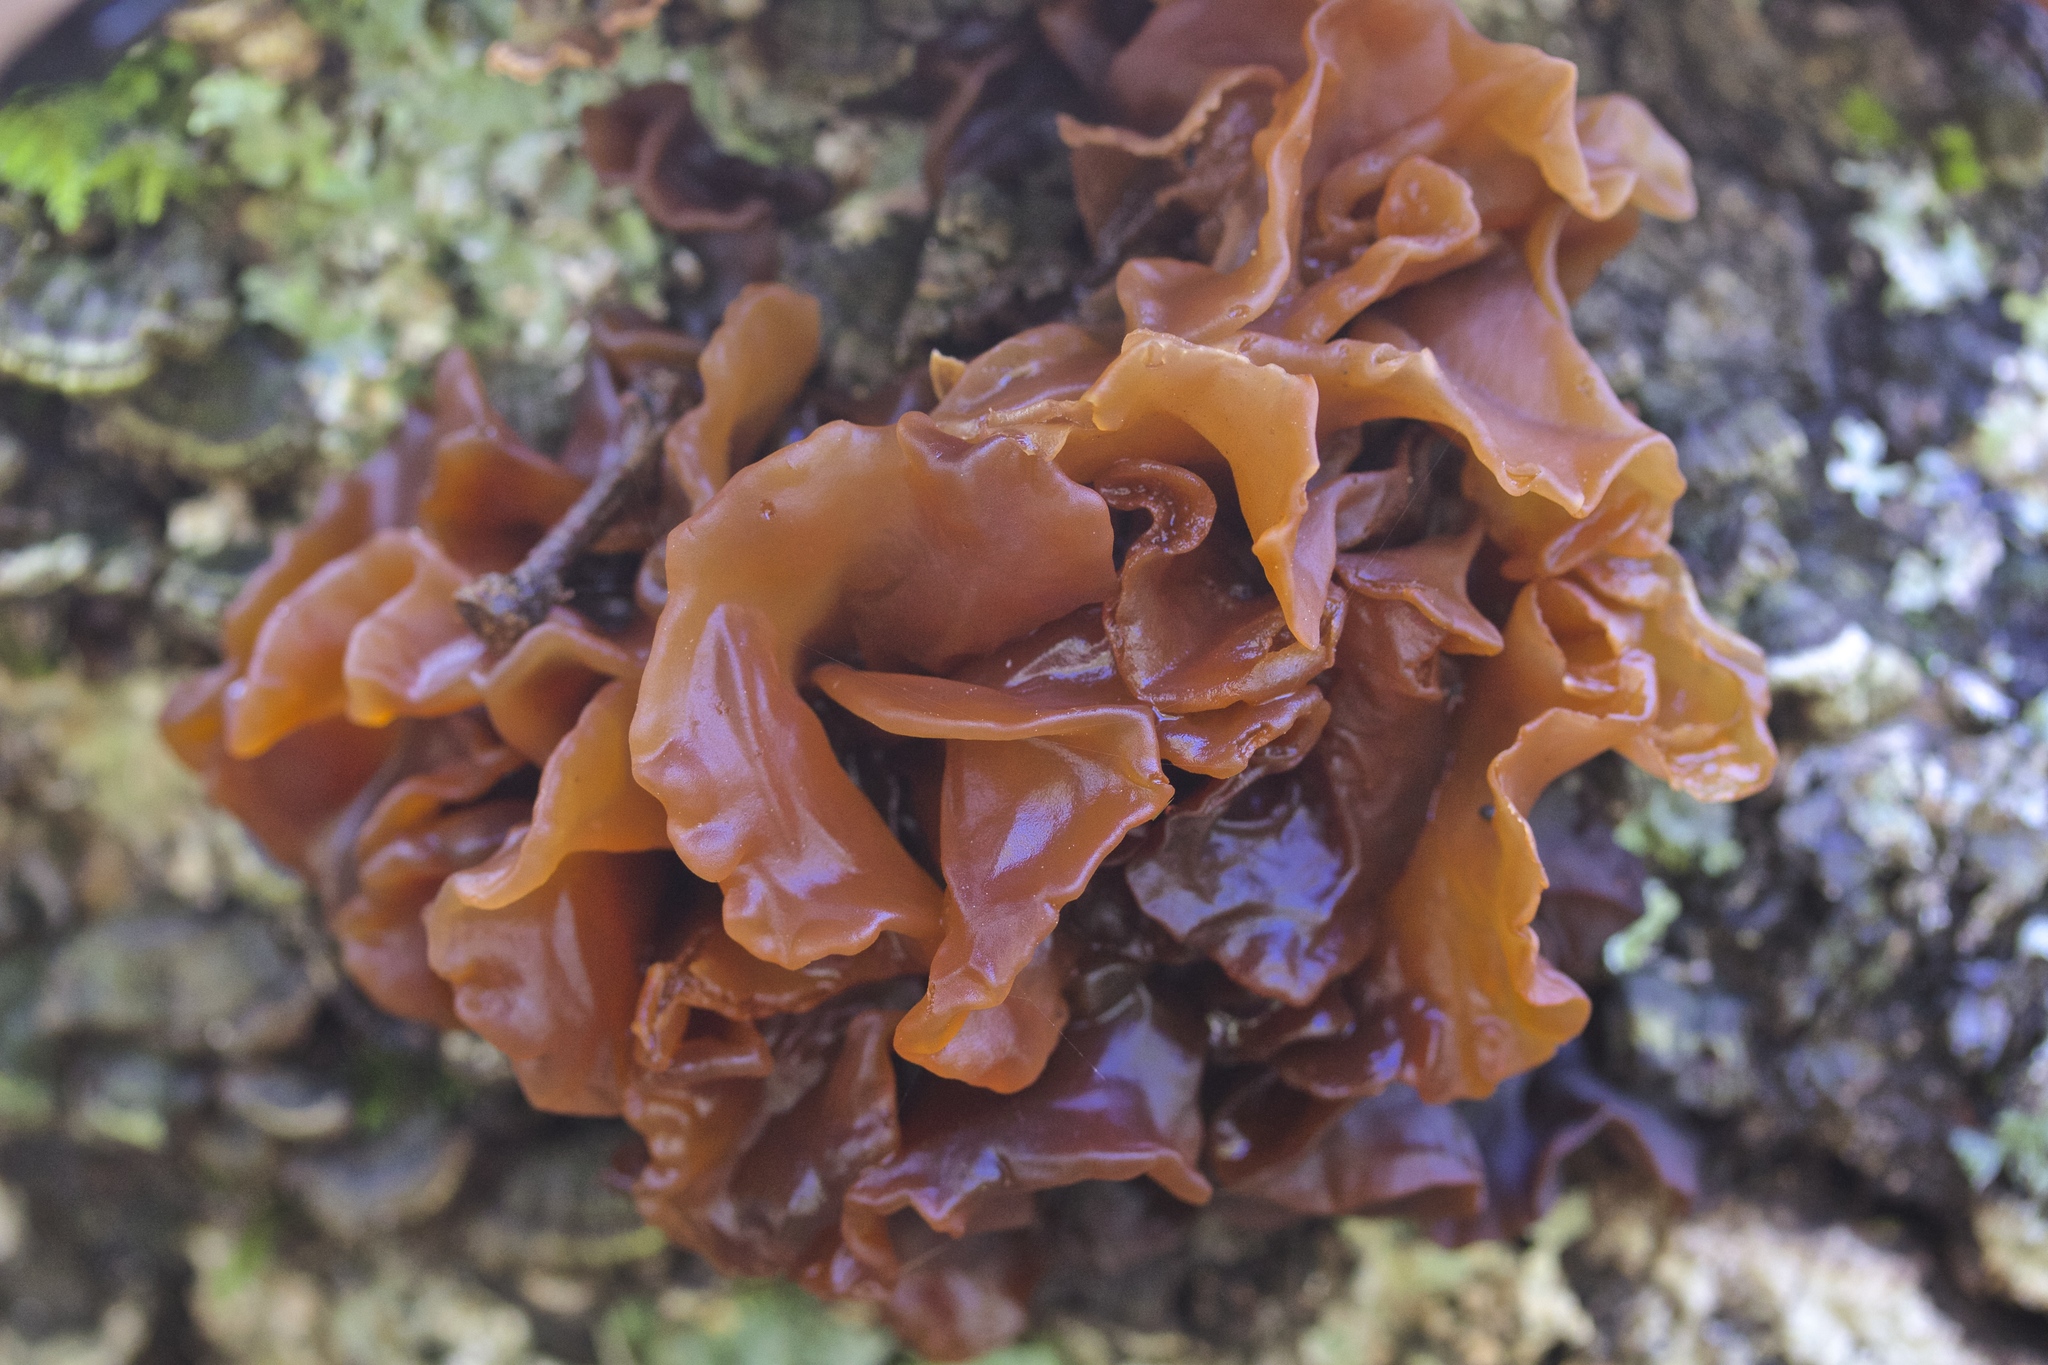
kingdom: Fungi
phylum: Basidiomycota
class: Tremellomycetes
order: Tremellales
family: Tremellaceae
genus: Phaeotremella
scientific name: Phaeotremella foliacea
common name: Leafy brain
